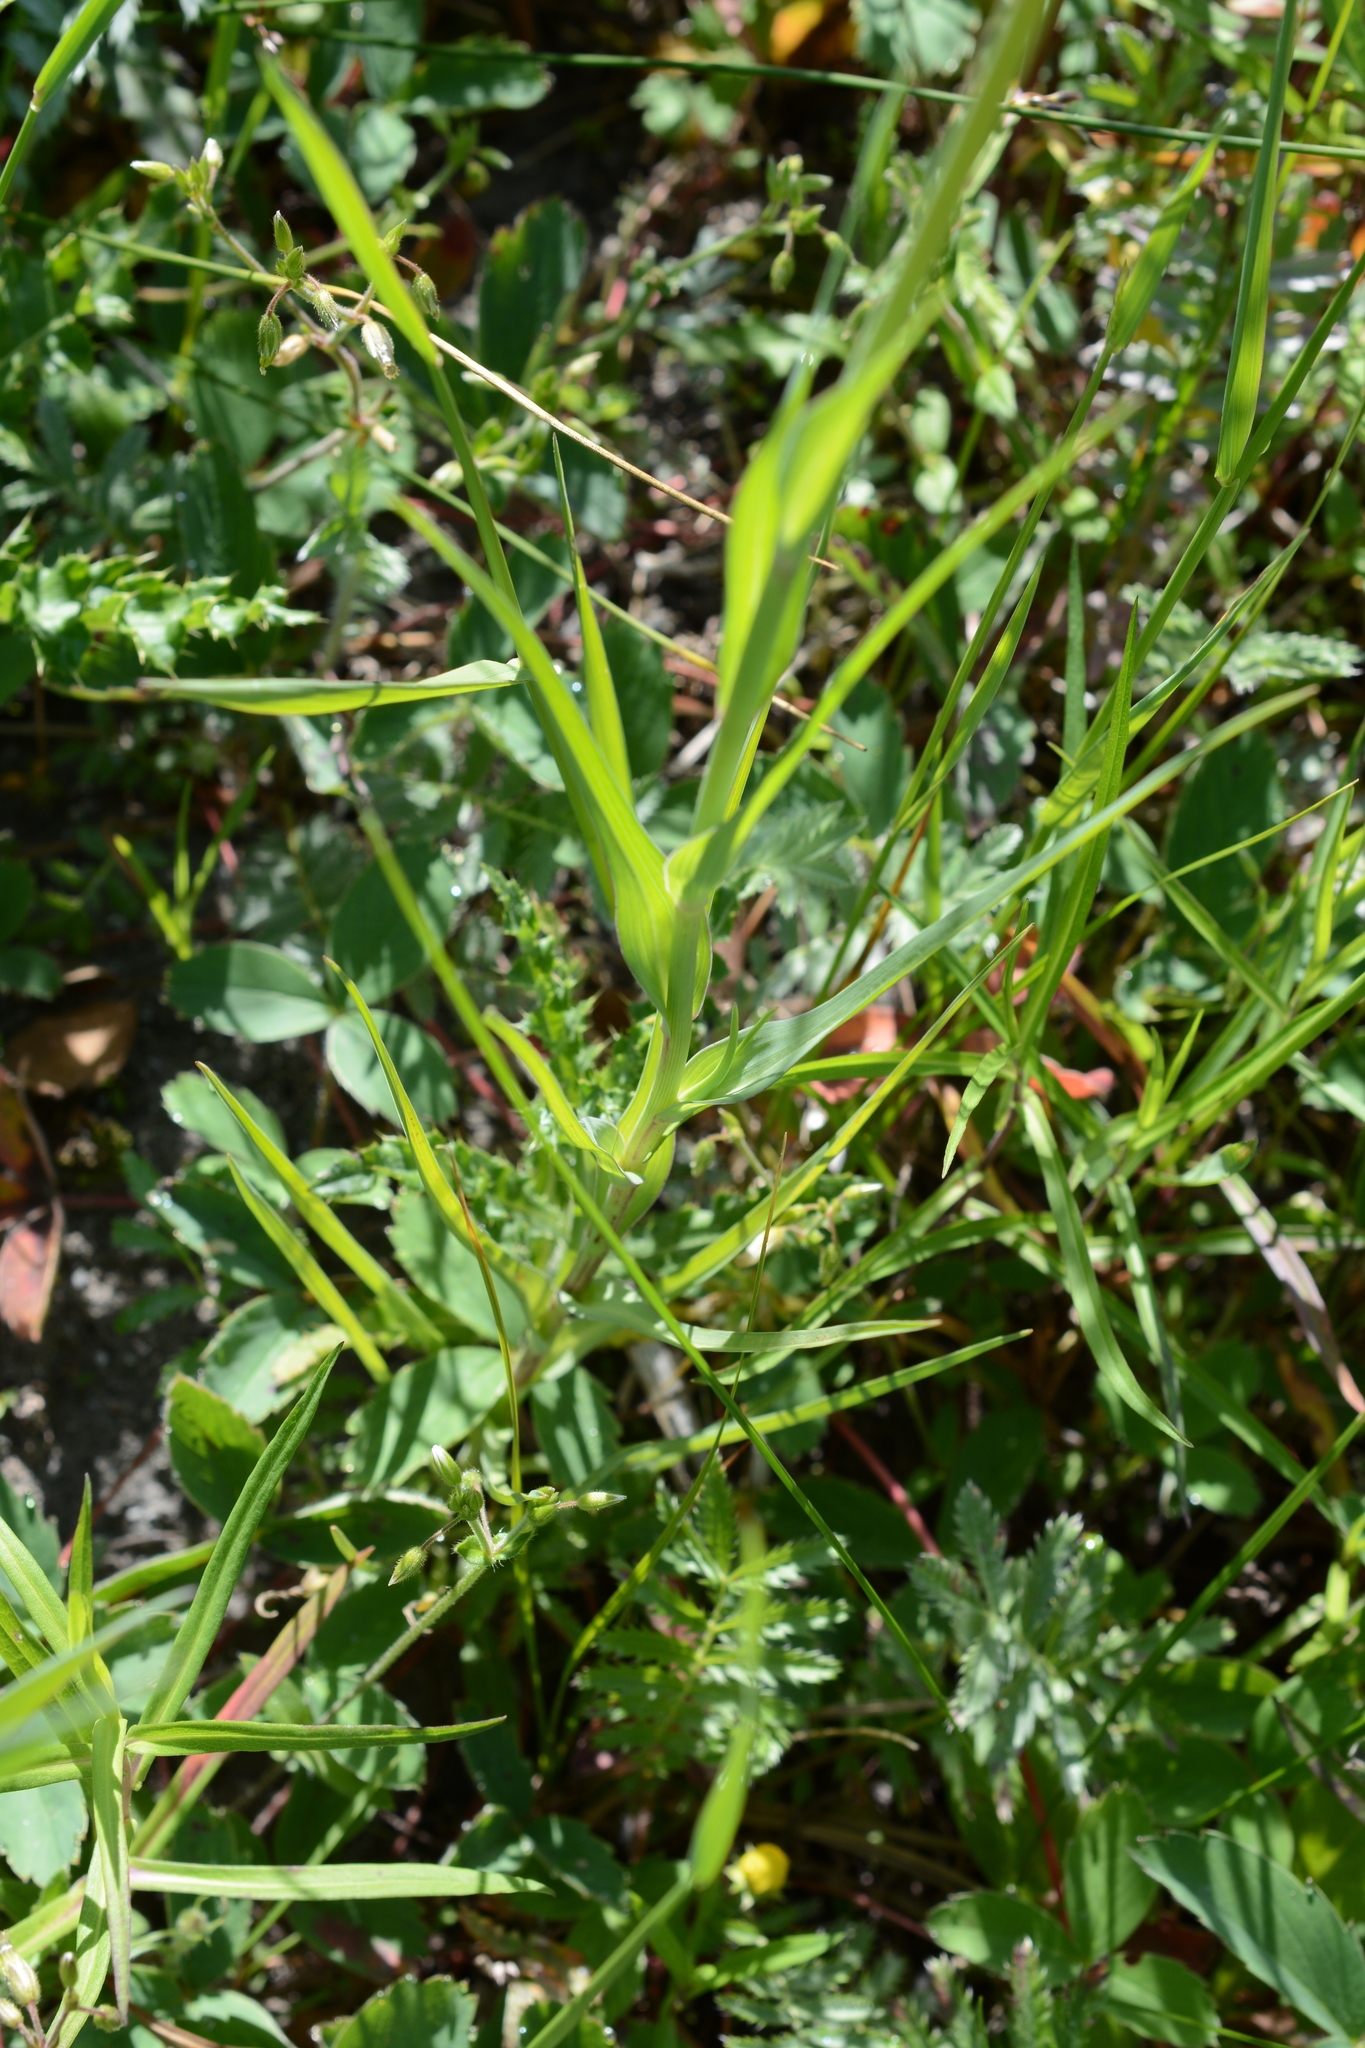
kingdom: Plantae
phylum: Tracheophyta
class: Magnoliopsida
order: Asterales
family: Asteraceae
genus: Tragopogon
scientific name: Tragopogon dubius
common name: Yellow salsify
